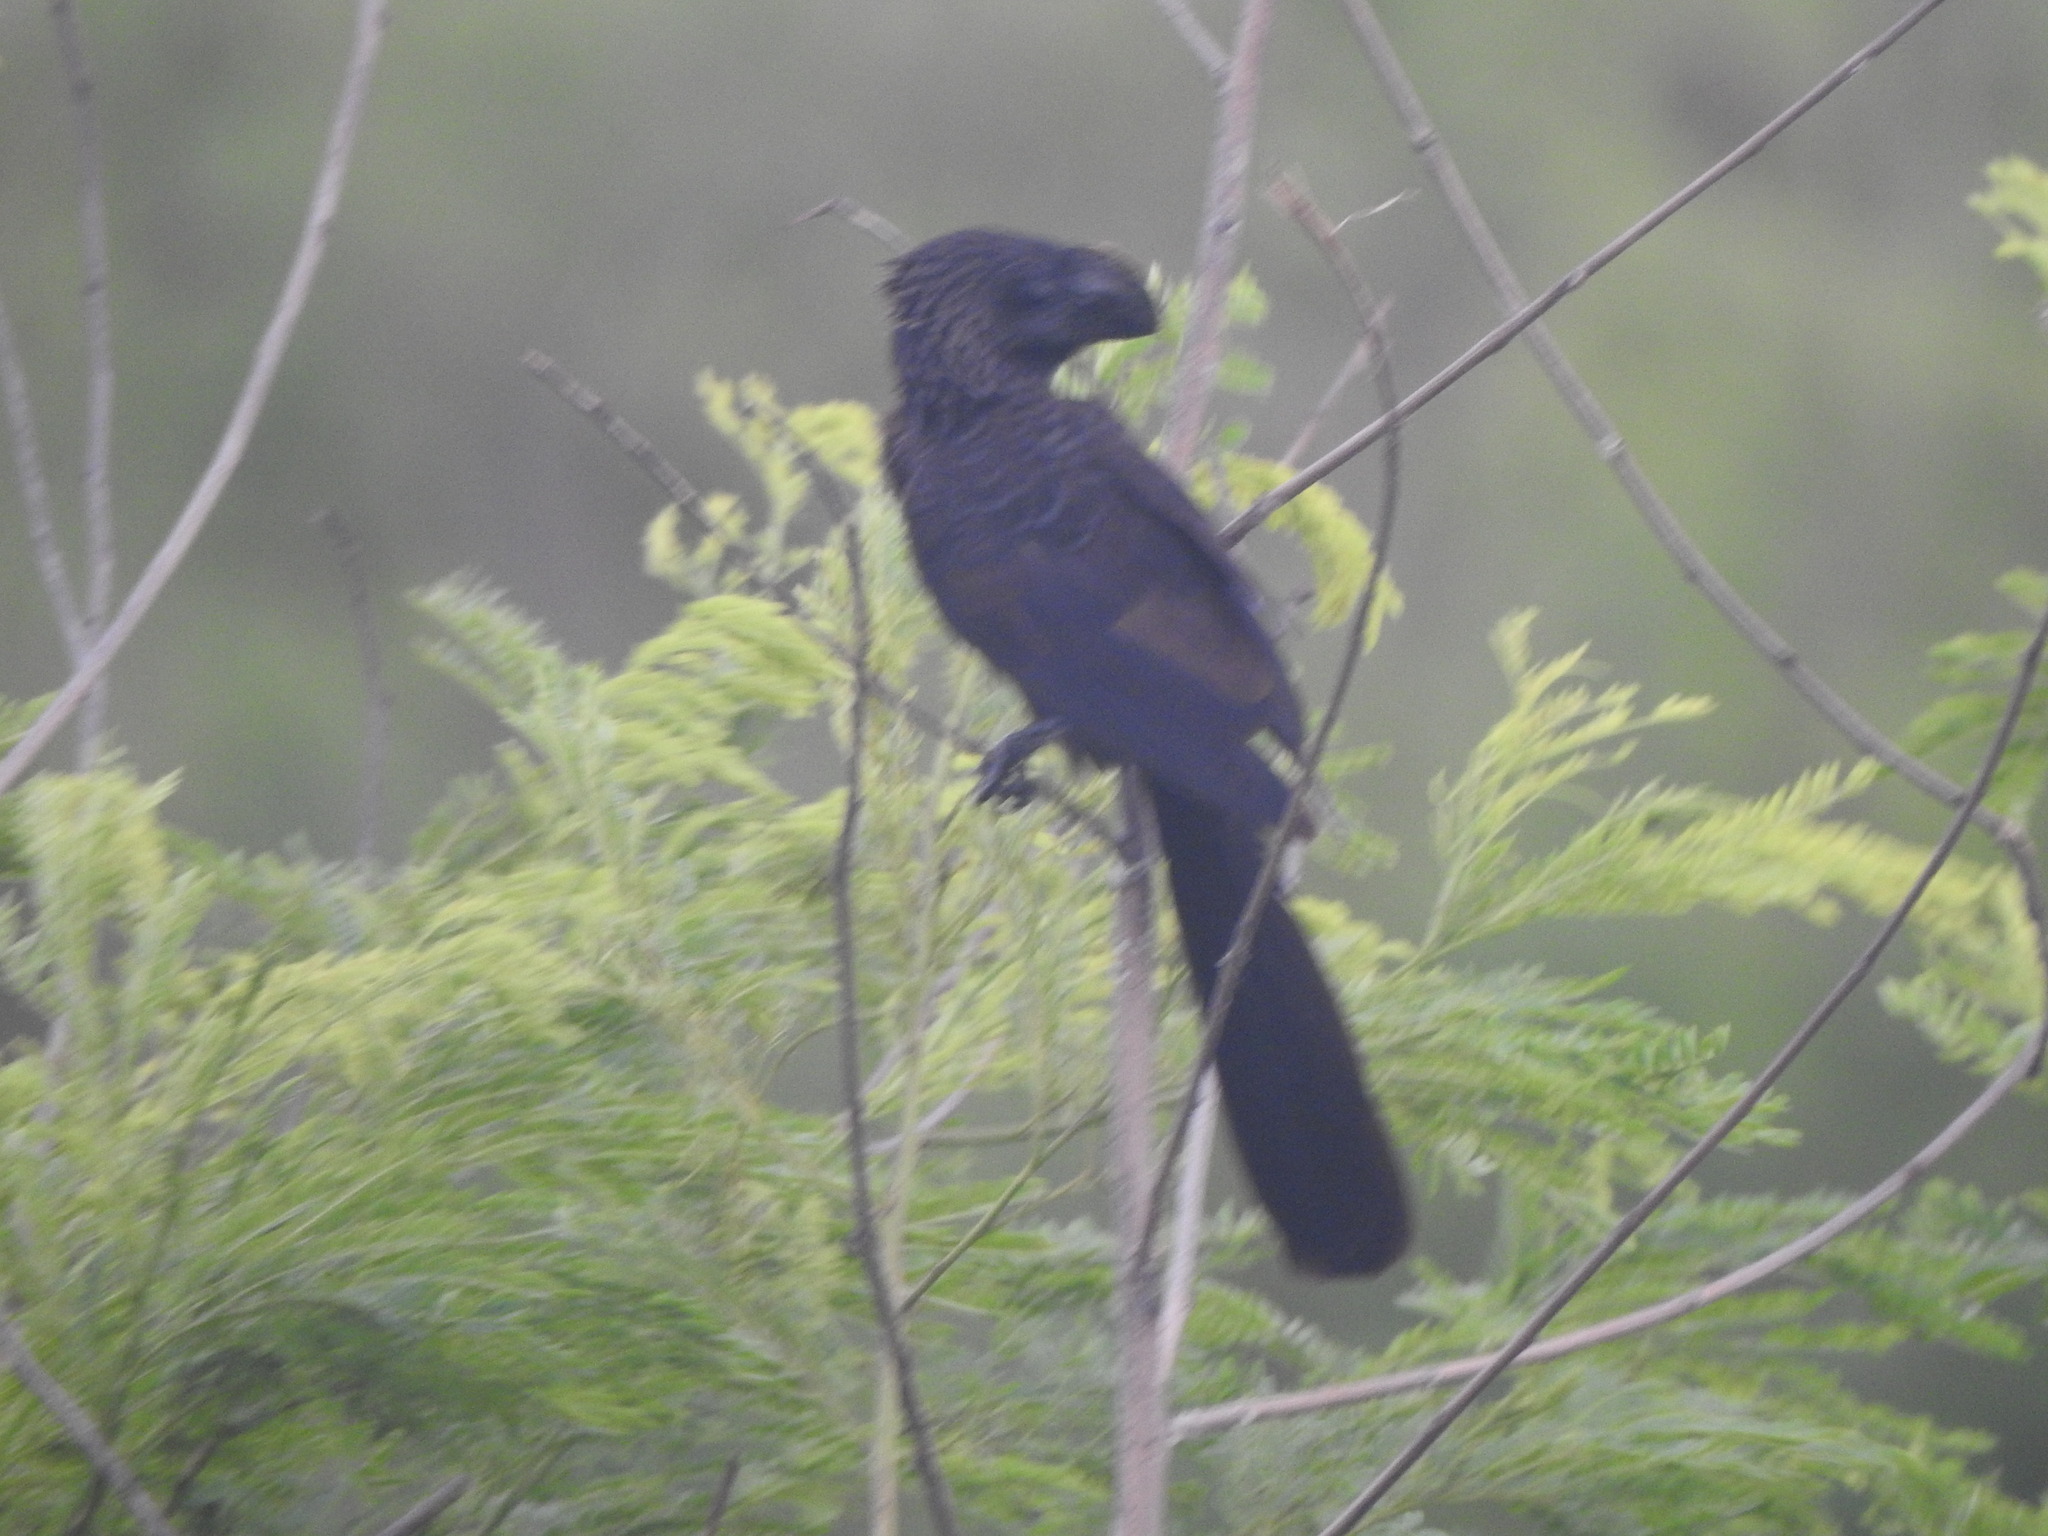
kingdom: Animalia
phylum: Chordata
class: Aves
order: Cuculiformes
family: Cuculidae
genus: Crotophaga
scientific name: Crotophaga ani
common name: Smooth-billed ani
